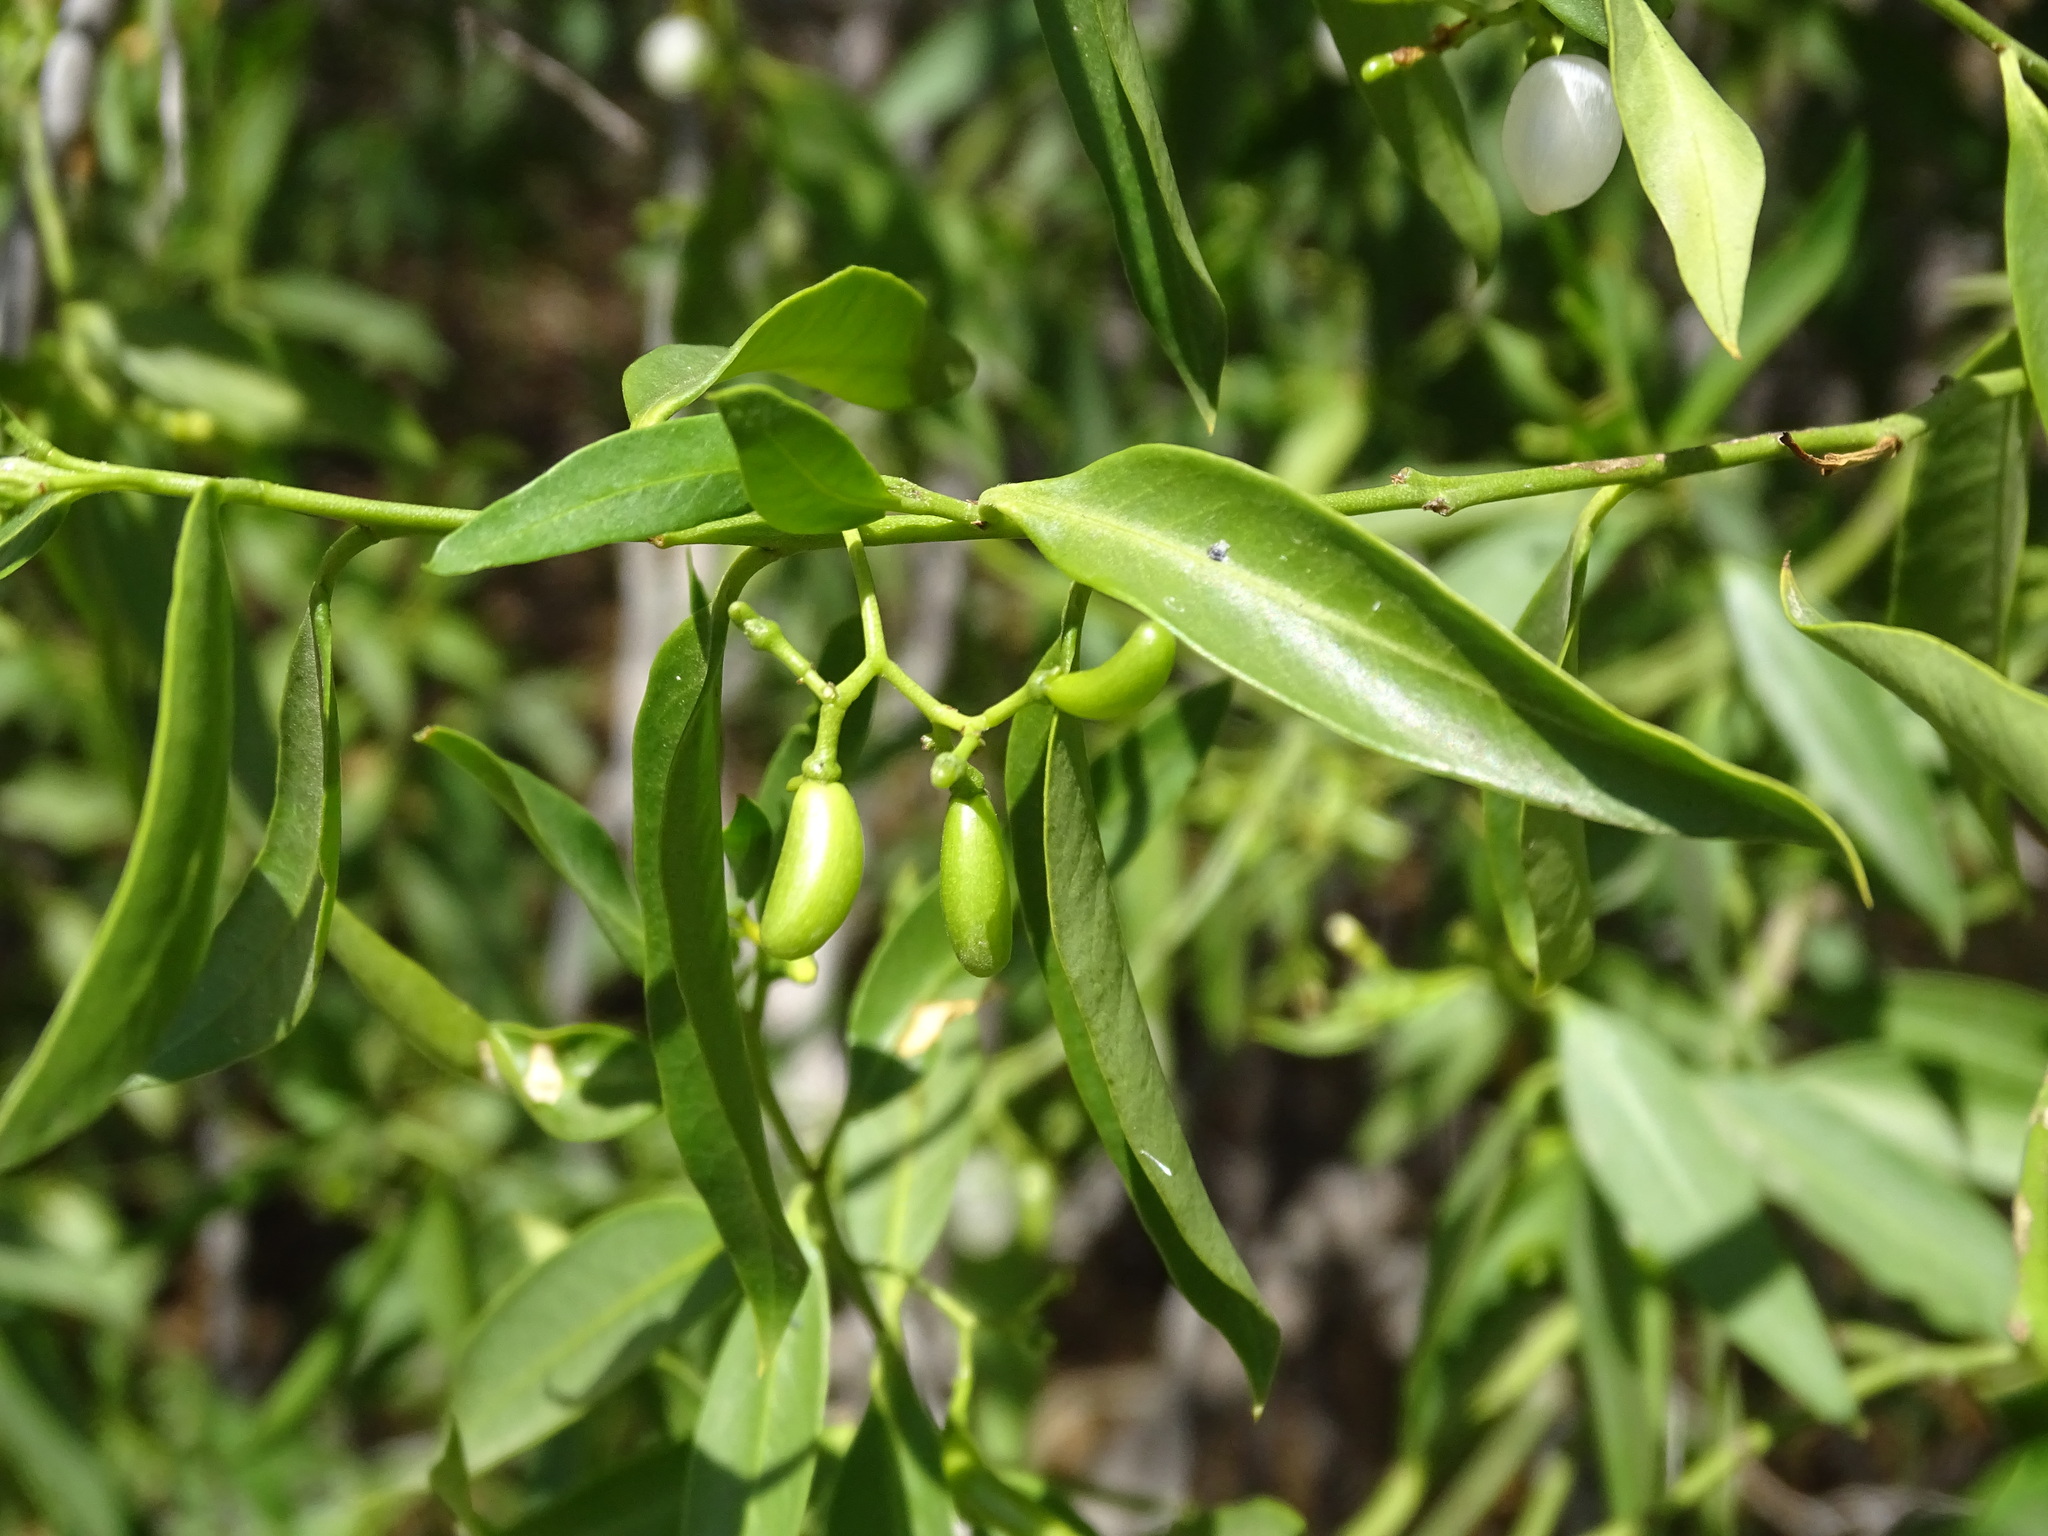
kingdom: Plantae
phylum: Tracheophyta
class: Magnoliopsida
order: Gentianales
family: Apocynaceae
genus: Vallesia
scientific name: Vallesia glabra
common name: Pearlberry
